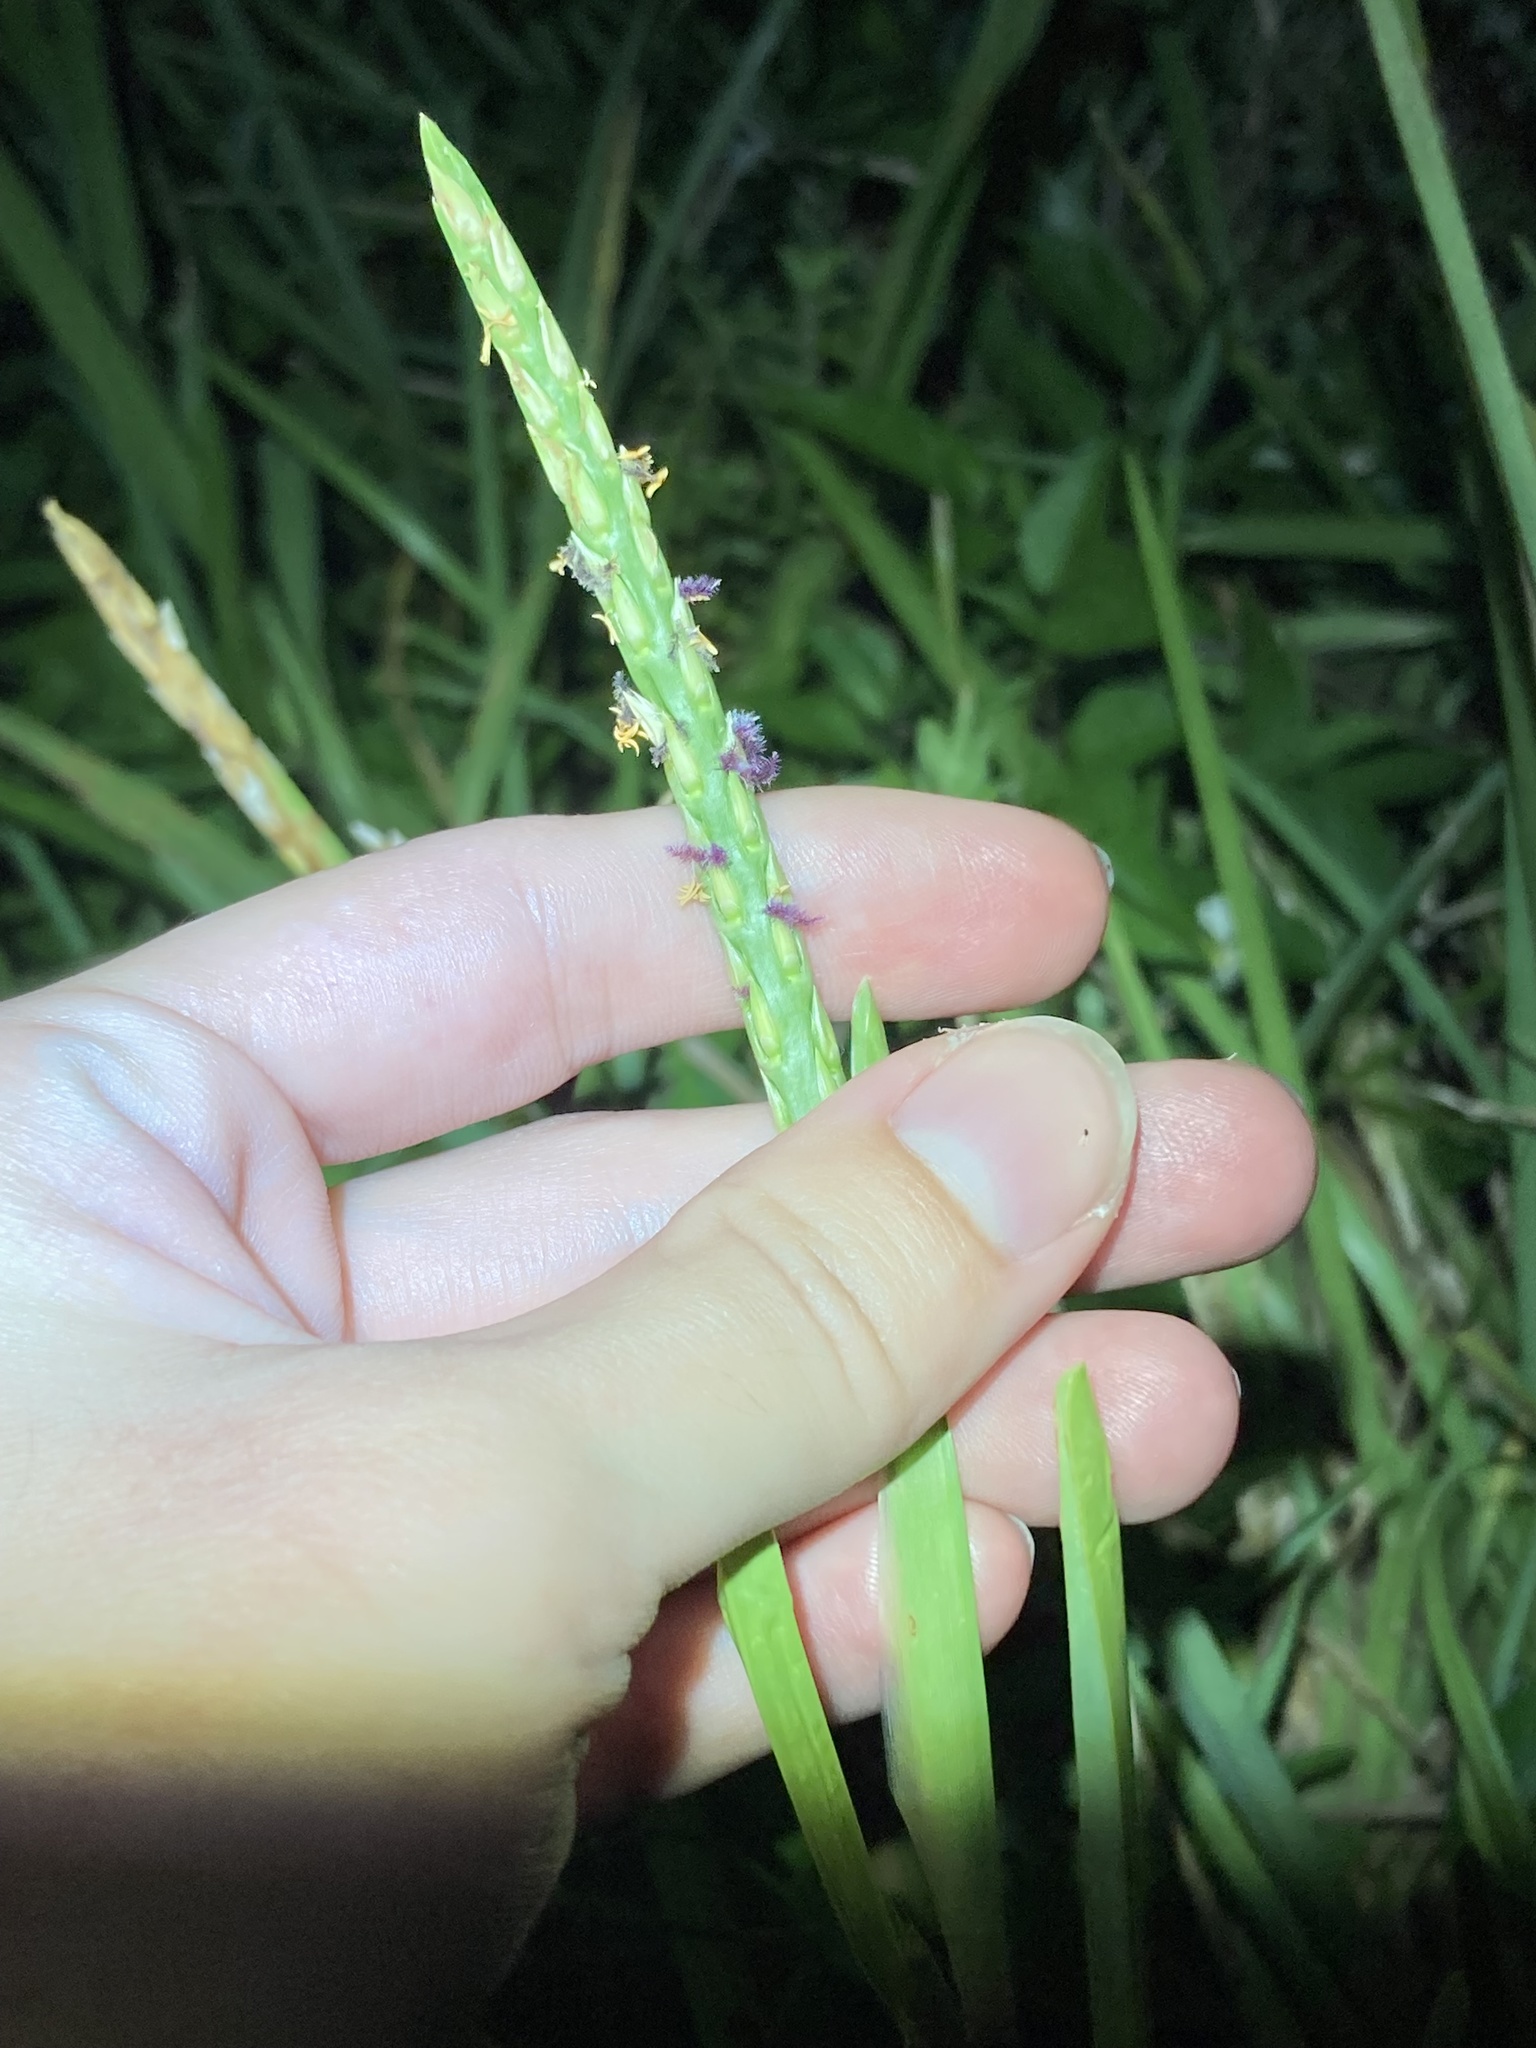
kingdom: Plantae
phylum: Tracheophyta
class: Liliopsida
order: Poales
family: Poaceae
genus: Stenotaphrum
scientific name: Stenotaphrum secundatum
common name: St. augustine grass
